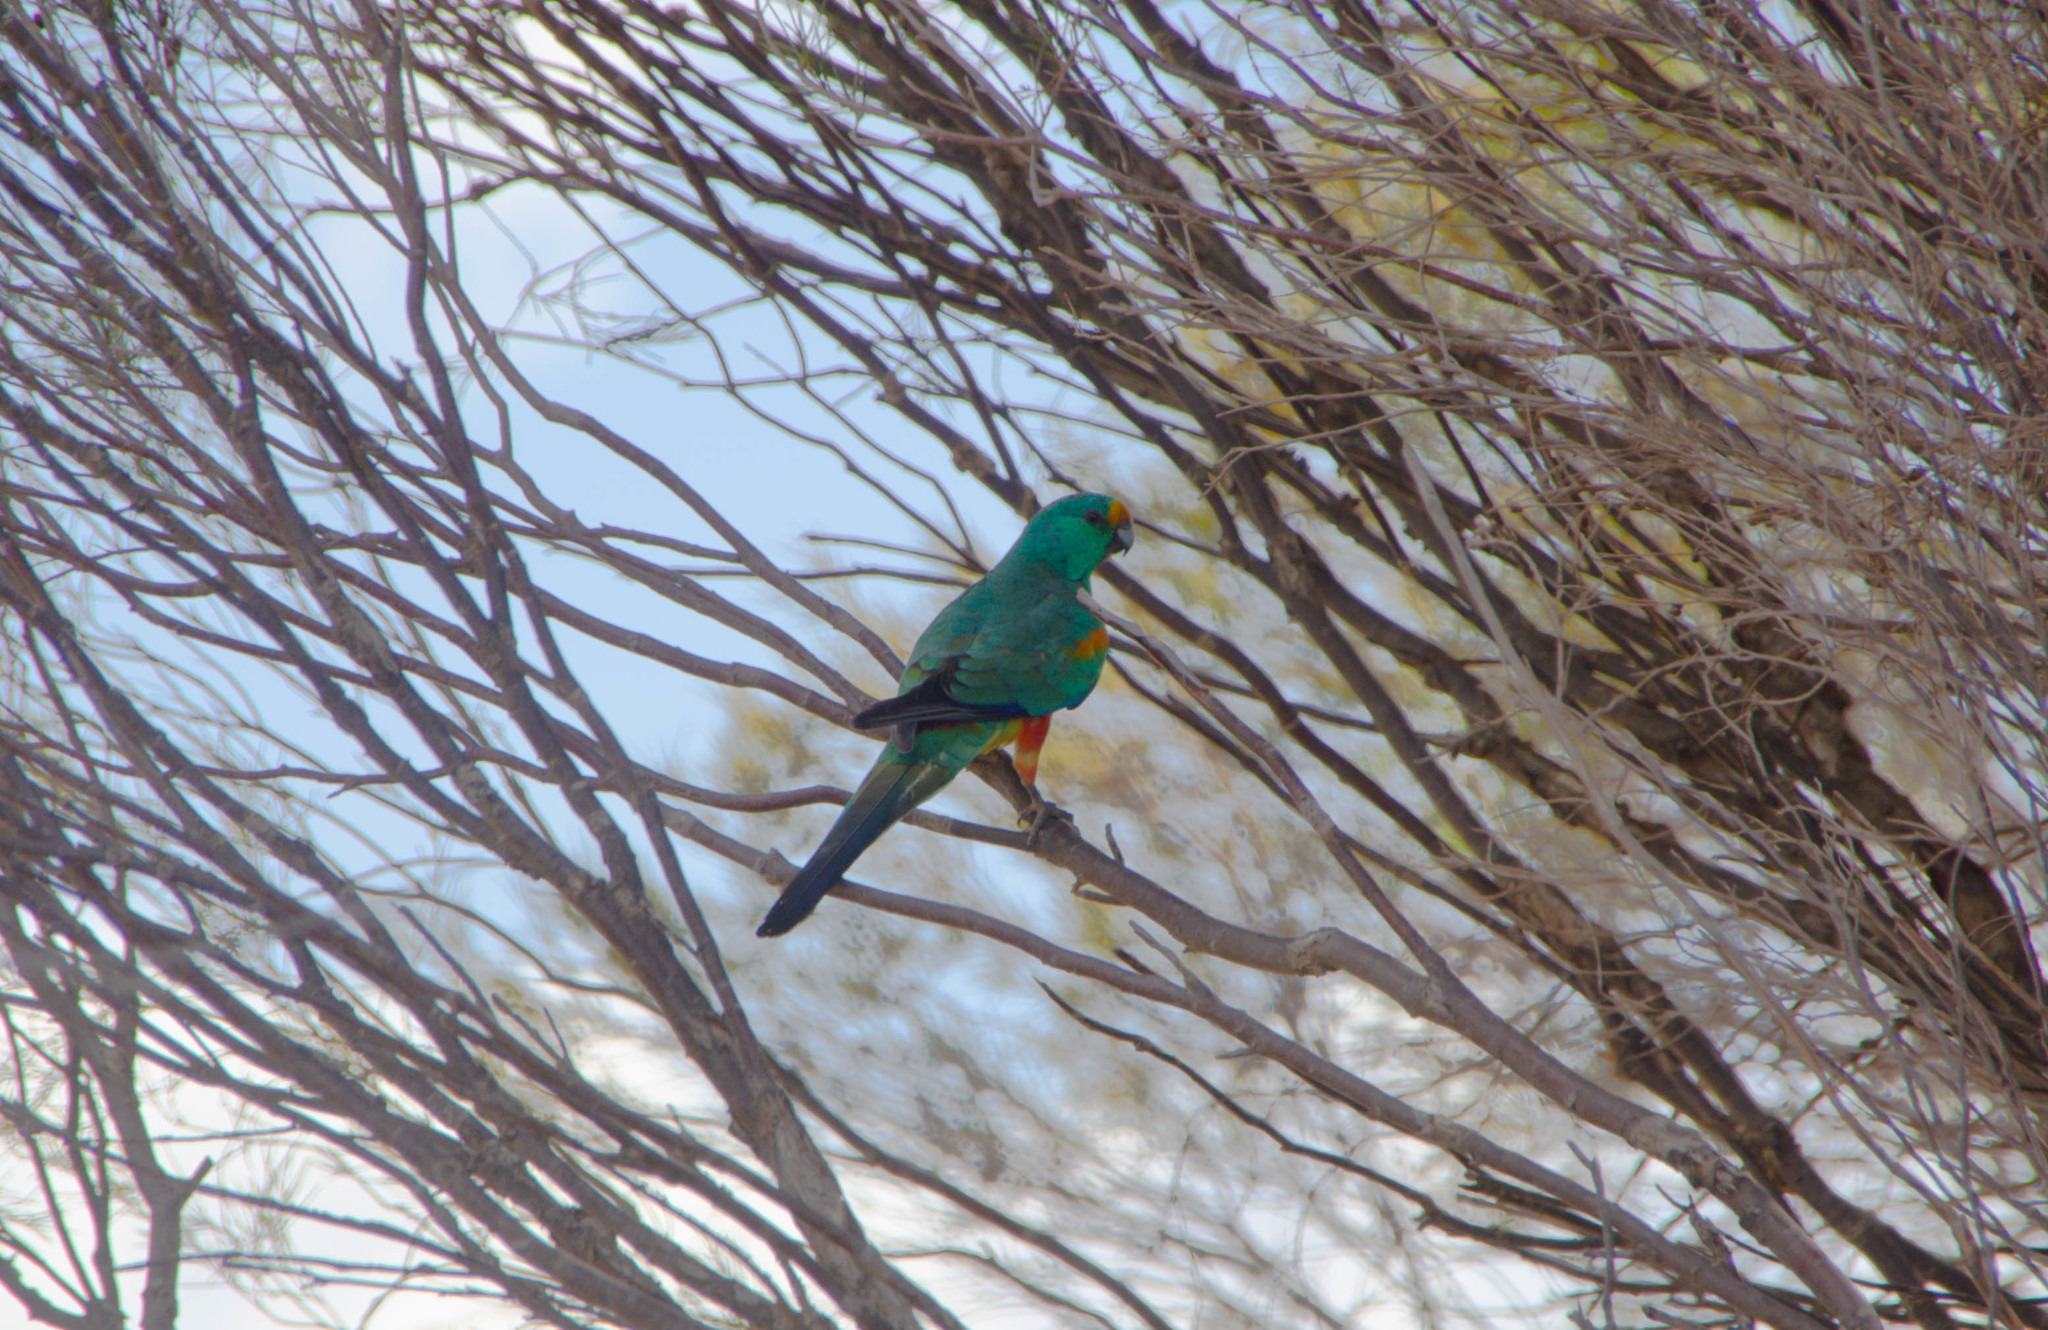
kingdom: Animalia
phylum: Chordata
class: Aves
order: Psittaciformes
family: Psittaculidae
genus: Psephotellus
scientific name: Psephotellus varius
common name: Mulga parrot
